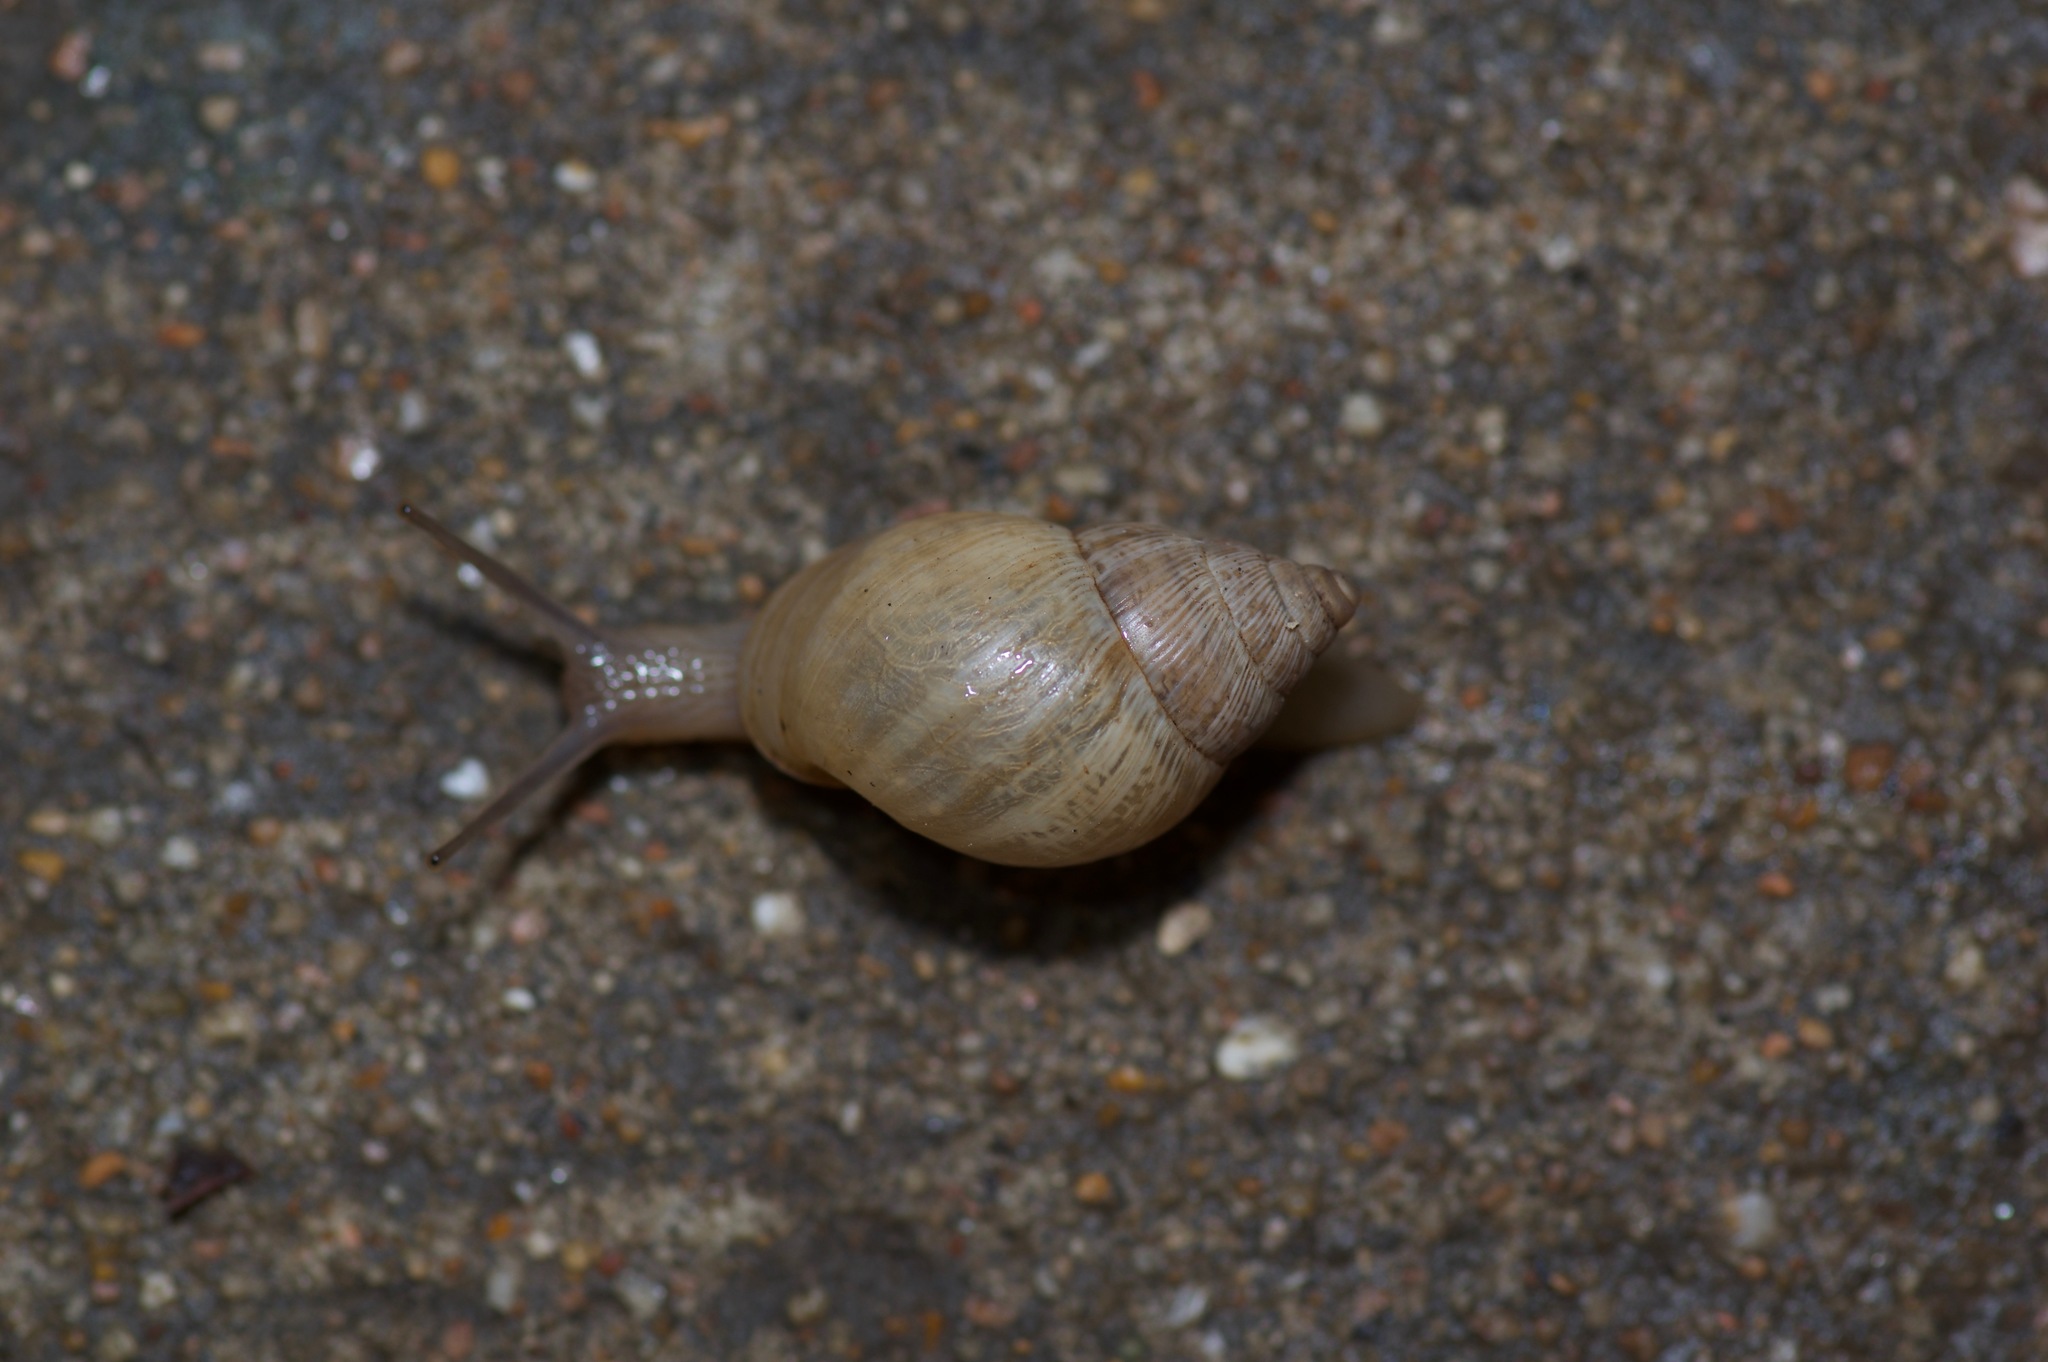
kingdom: Animalia
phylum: Mollusca
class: Gastropoda
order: Stylommatophora
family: Bulimulidae
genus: Rabdotus
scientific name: Rabdotus dealbatus
